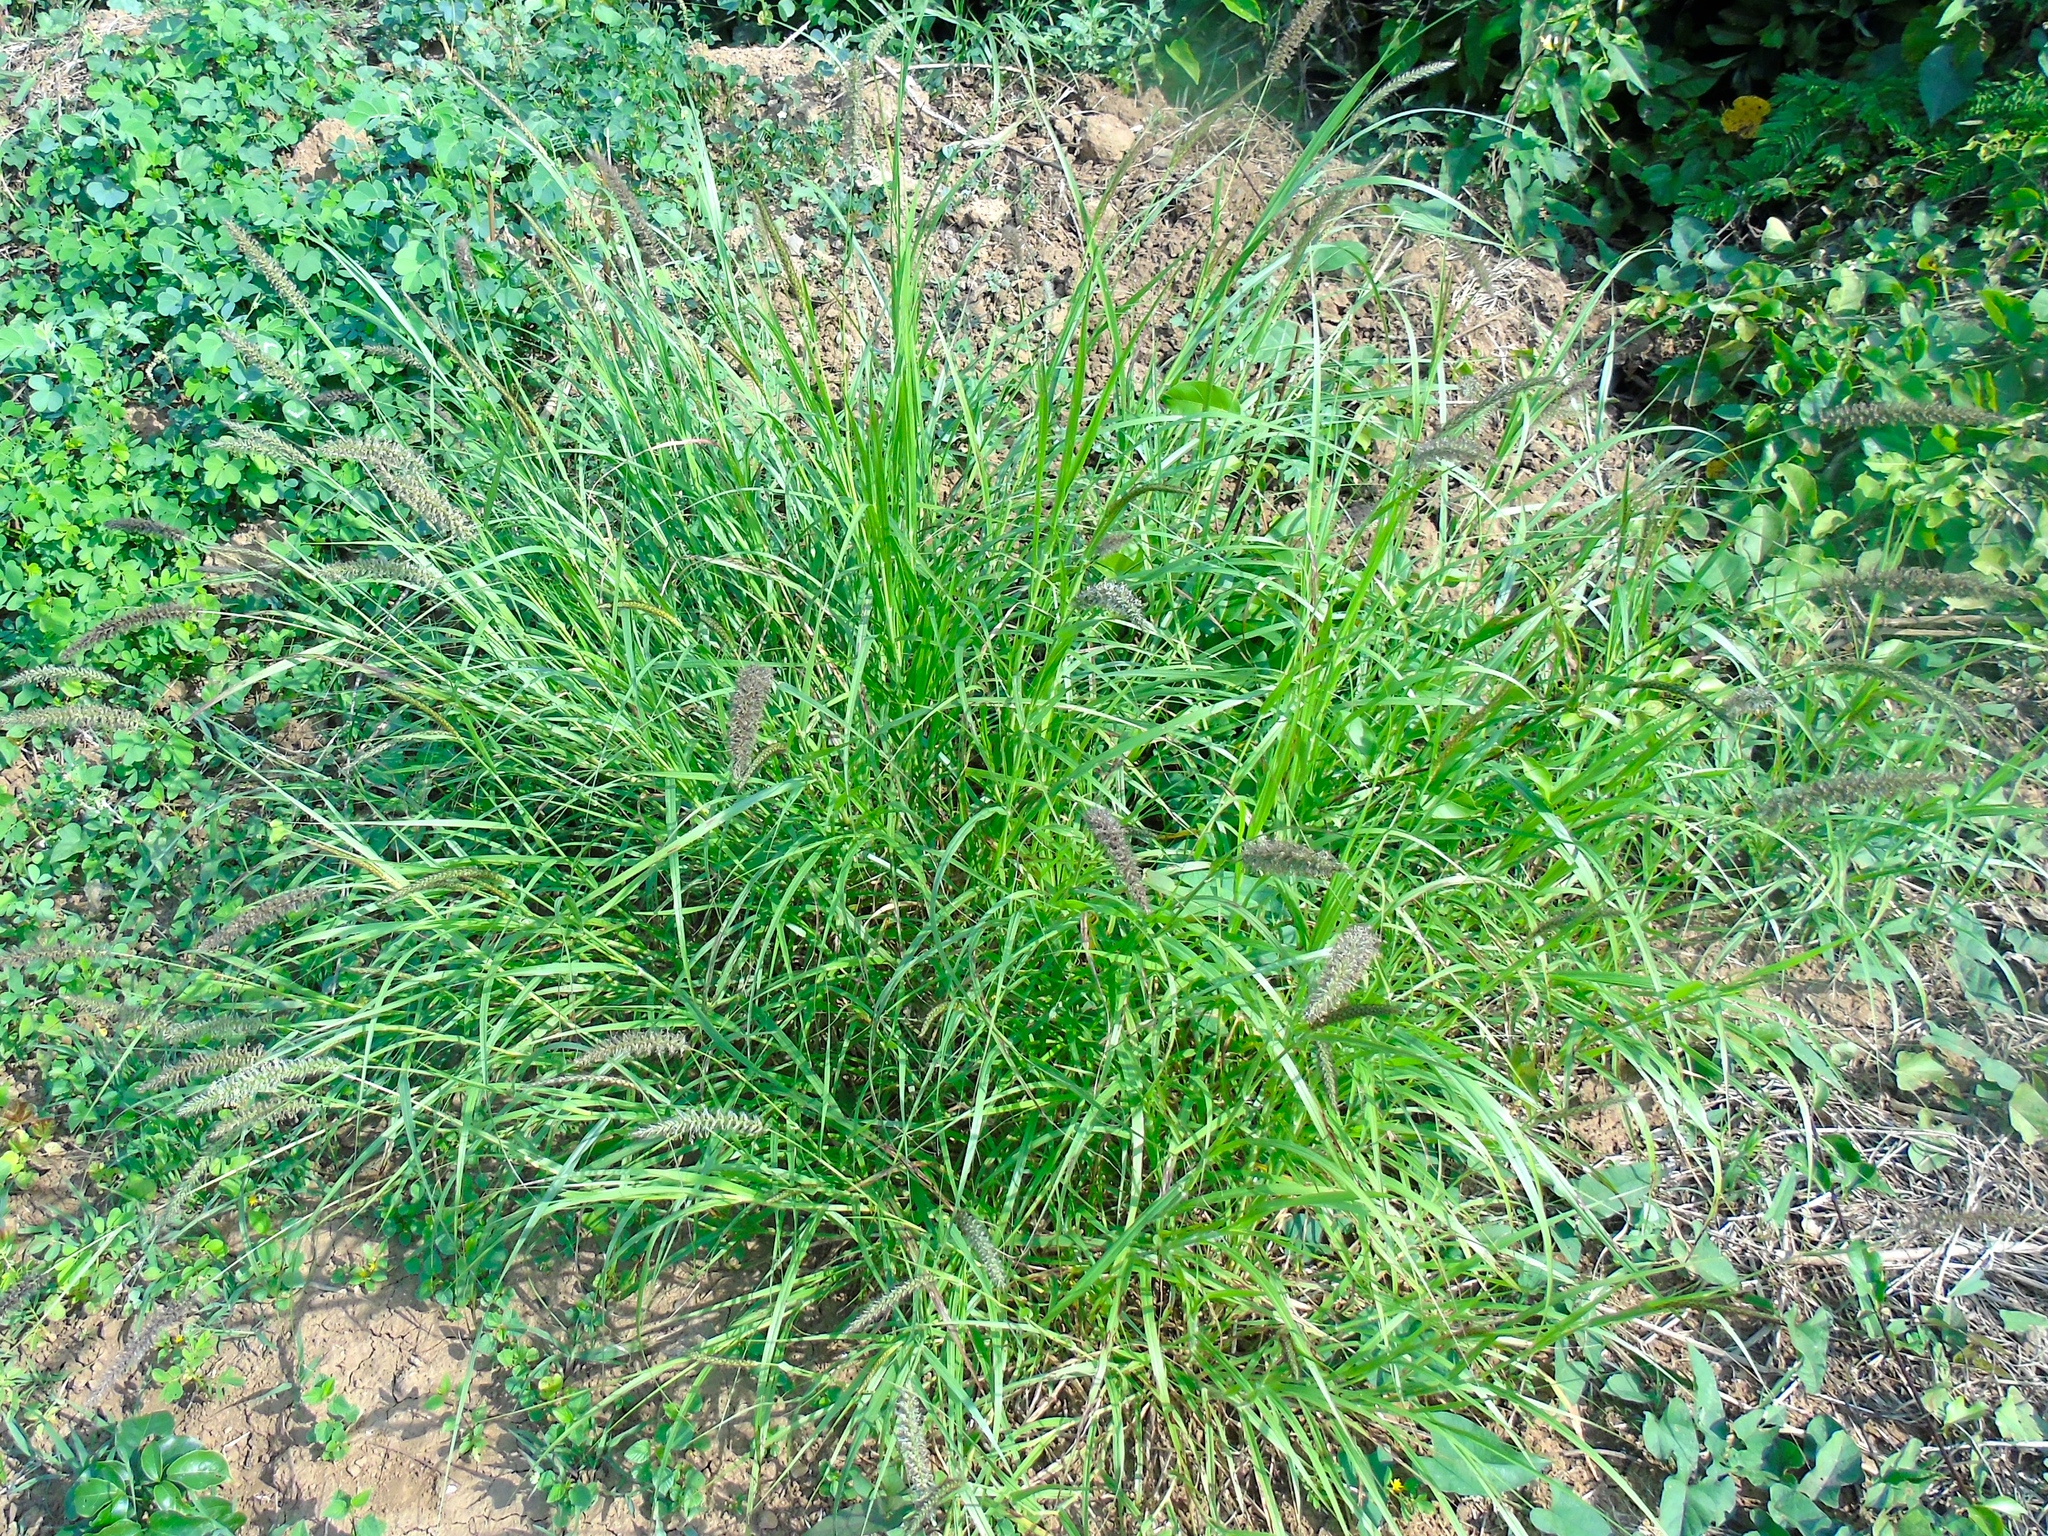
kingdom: Plantae
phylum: Tracheophyta
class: Liliopsida
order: Poales
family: Poaceae
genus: Cenchrus
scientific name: Cenchrus ciliaris
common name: Buffelgrass
